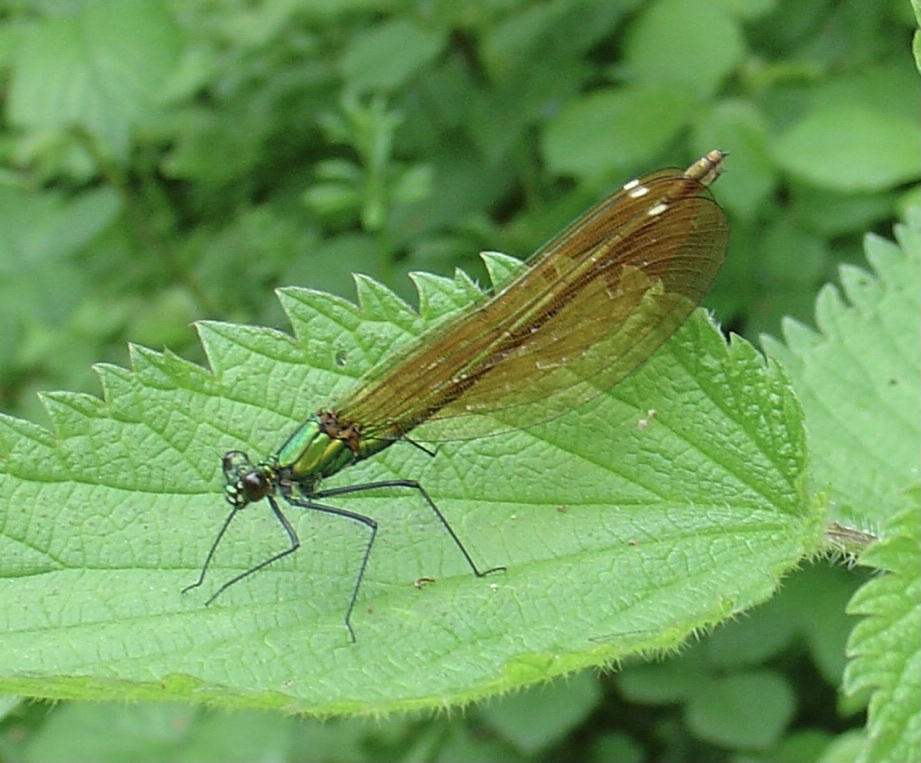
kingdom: Animalia
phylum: Arthropoda
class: Insecta
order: Odonata
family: Calopterygidae
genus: Calopteryx
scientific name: Calopteryx virgo
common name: Beautiful demoiselle
